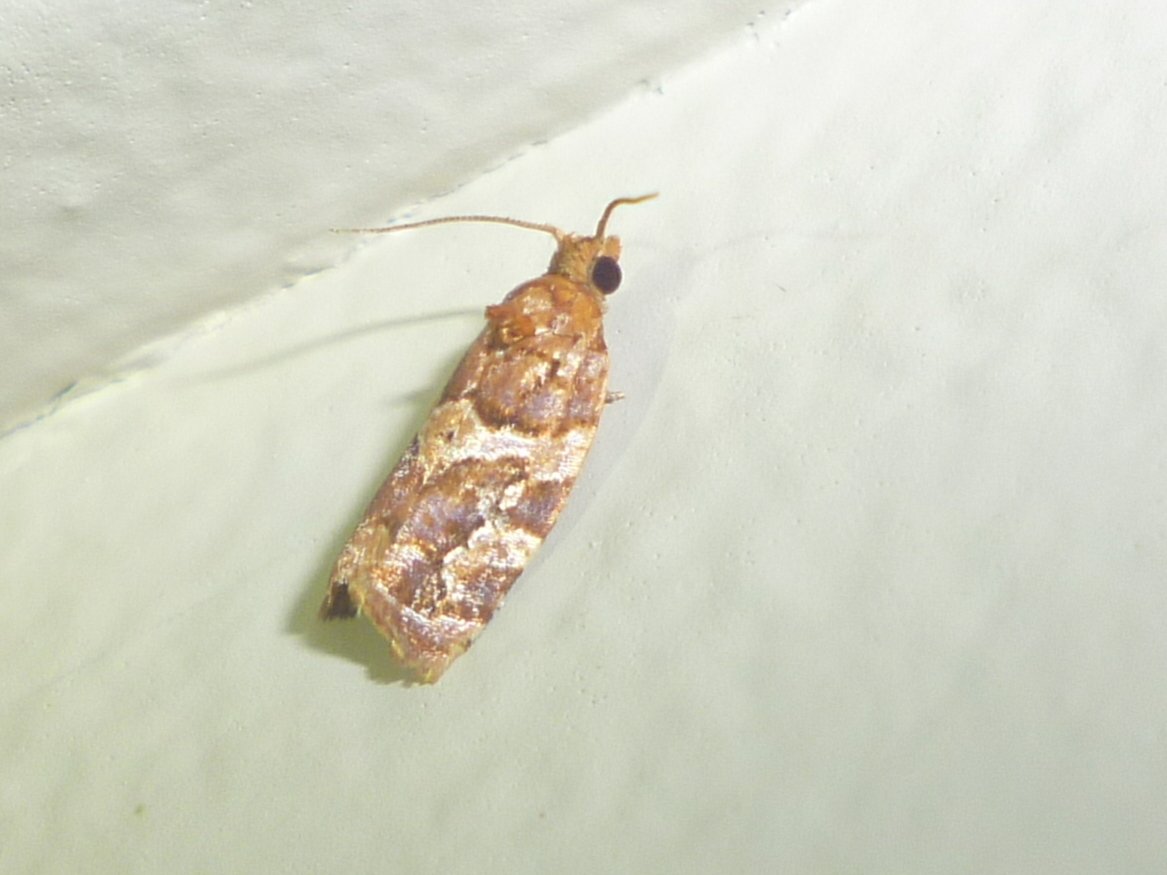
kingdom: Animalia
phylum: Arthropoda
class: Insecta
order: Lepidoptera
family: Tortricidae
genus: Argyrotaenia
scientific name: Argyrotaenia hodgesi
